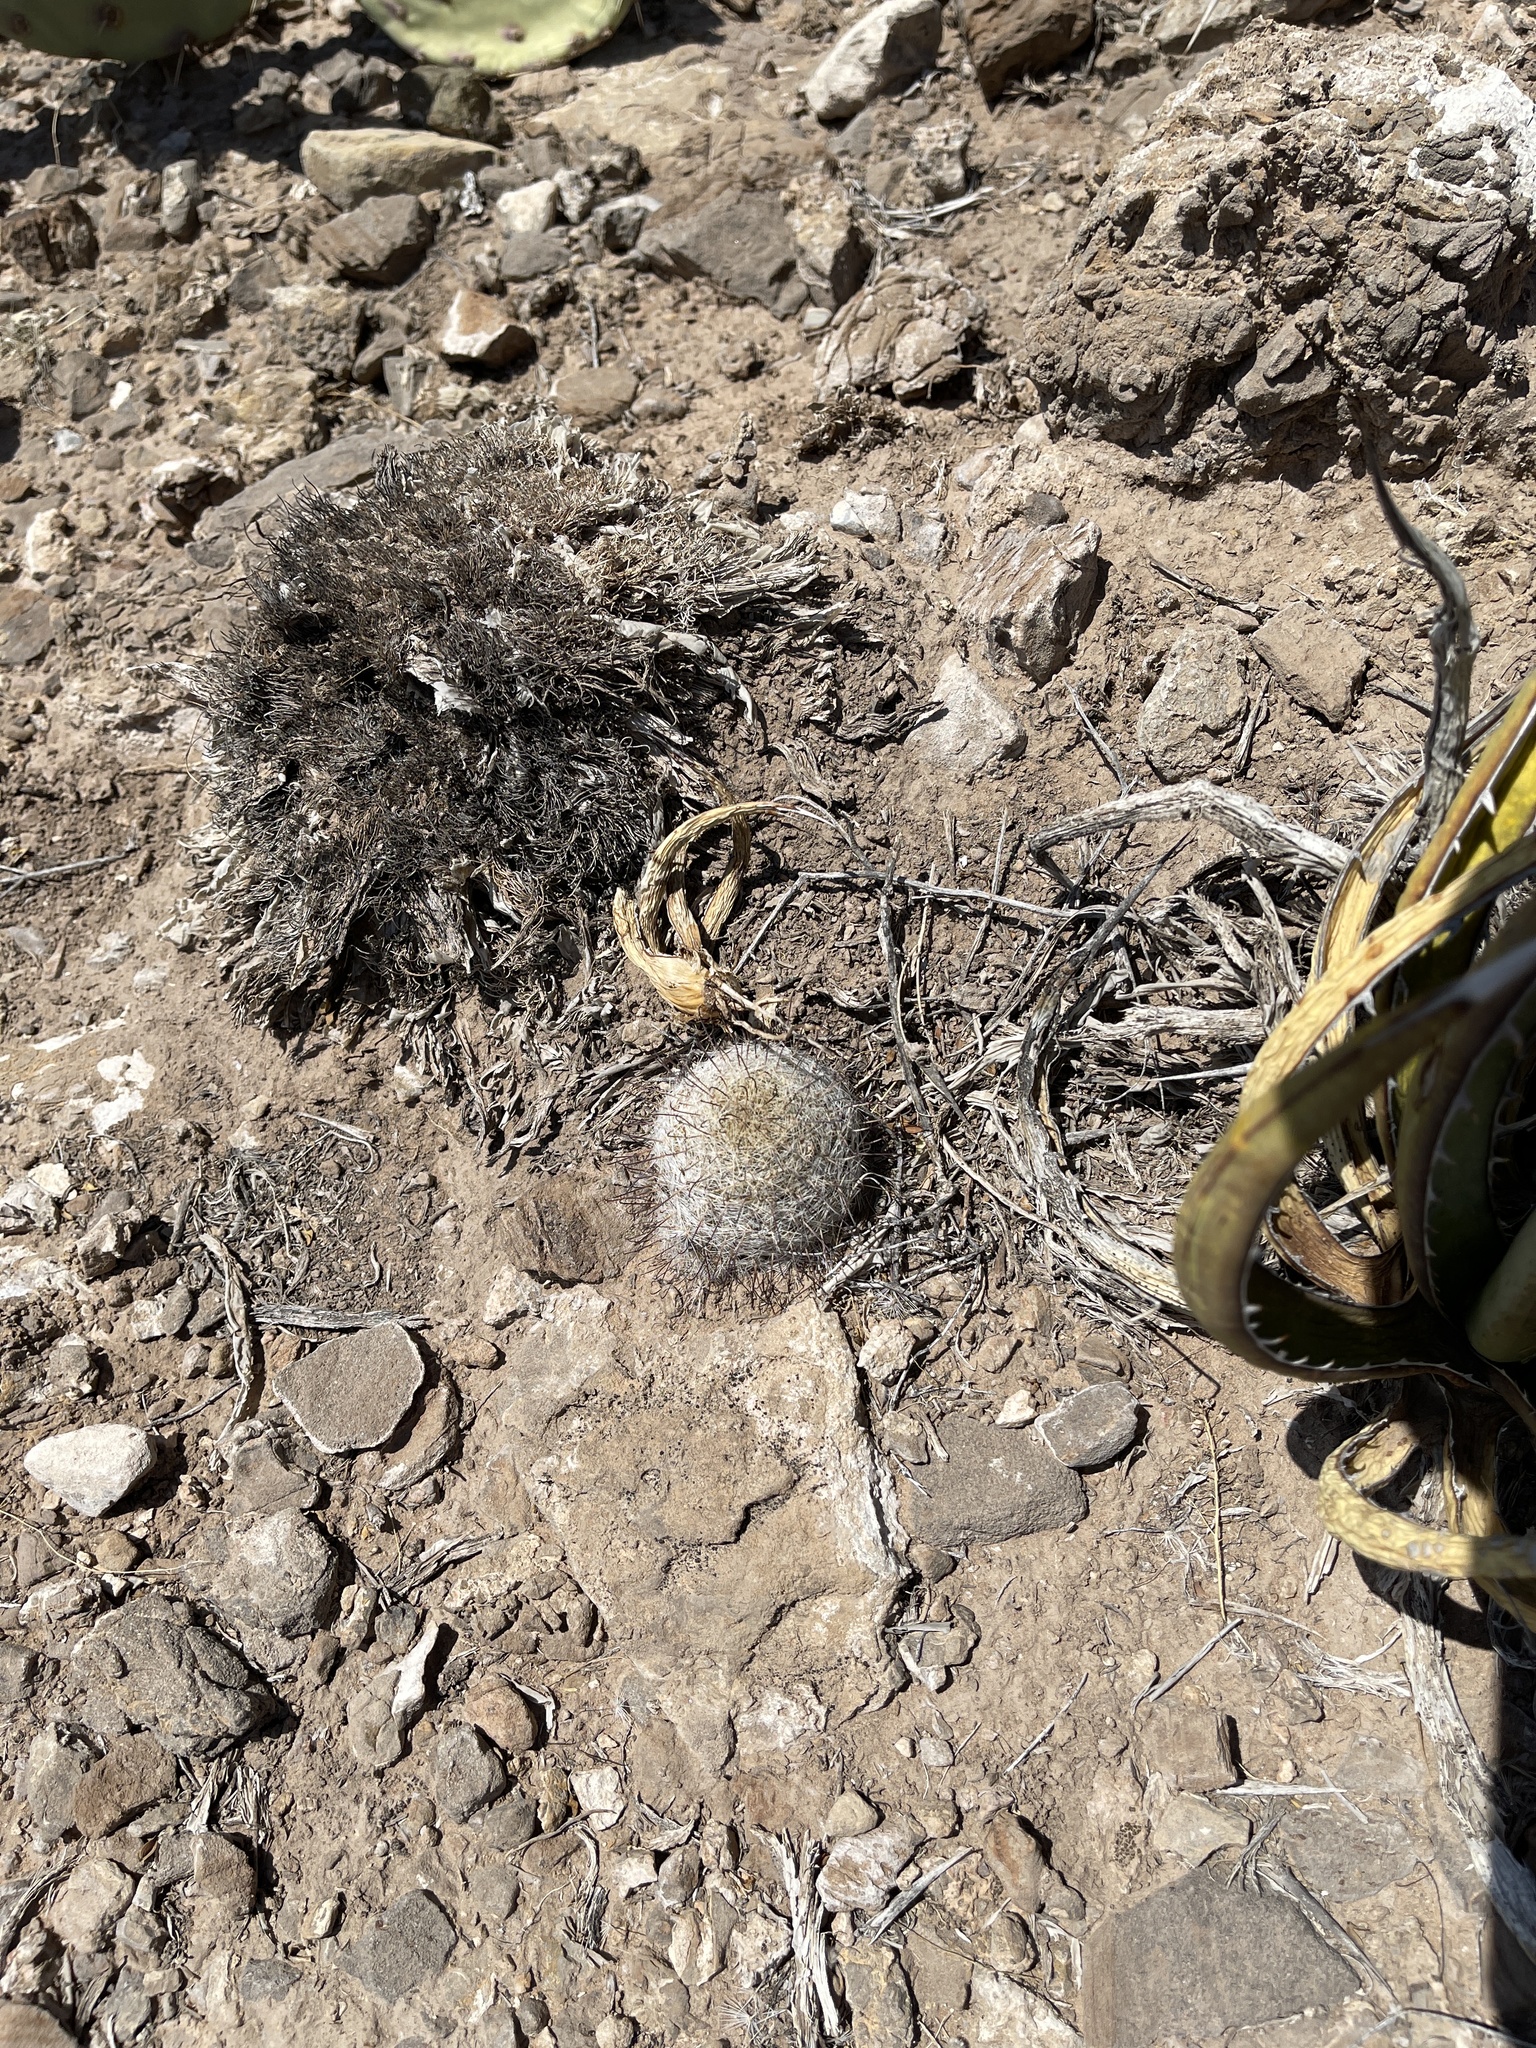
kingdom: Plantae
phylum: Tracheophyta
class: Magnoliopsida
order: Caryophyllales
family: Cactaceae
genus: Cochemiea
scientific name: Cochemiea grahamii
